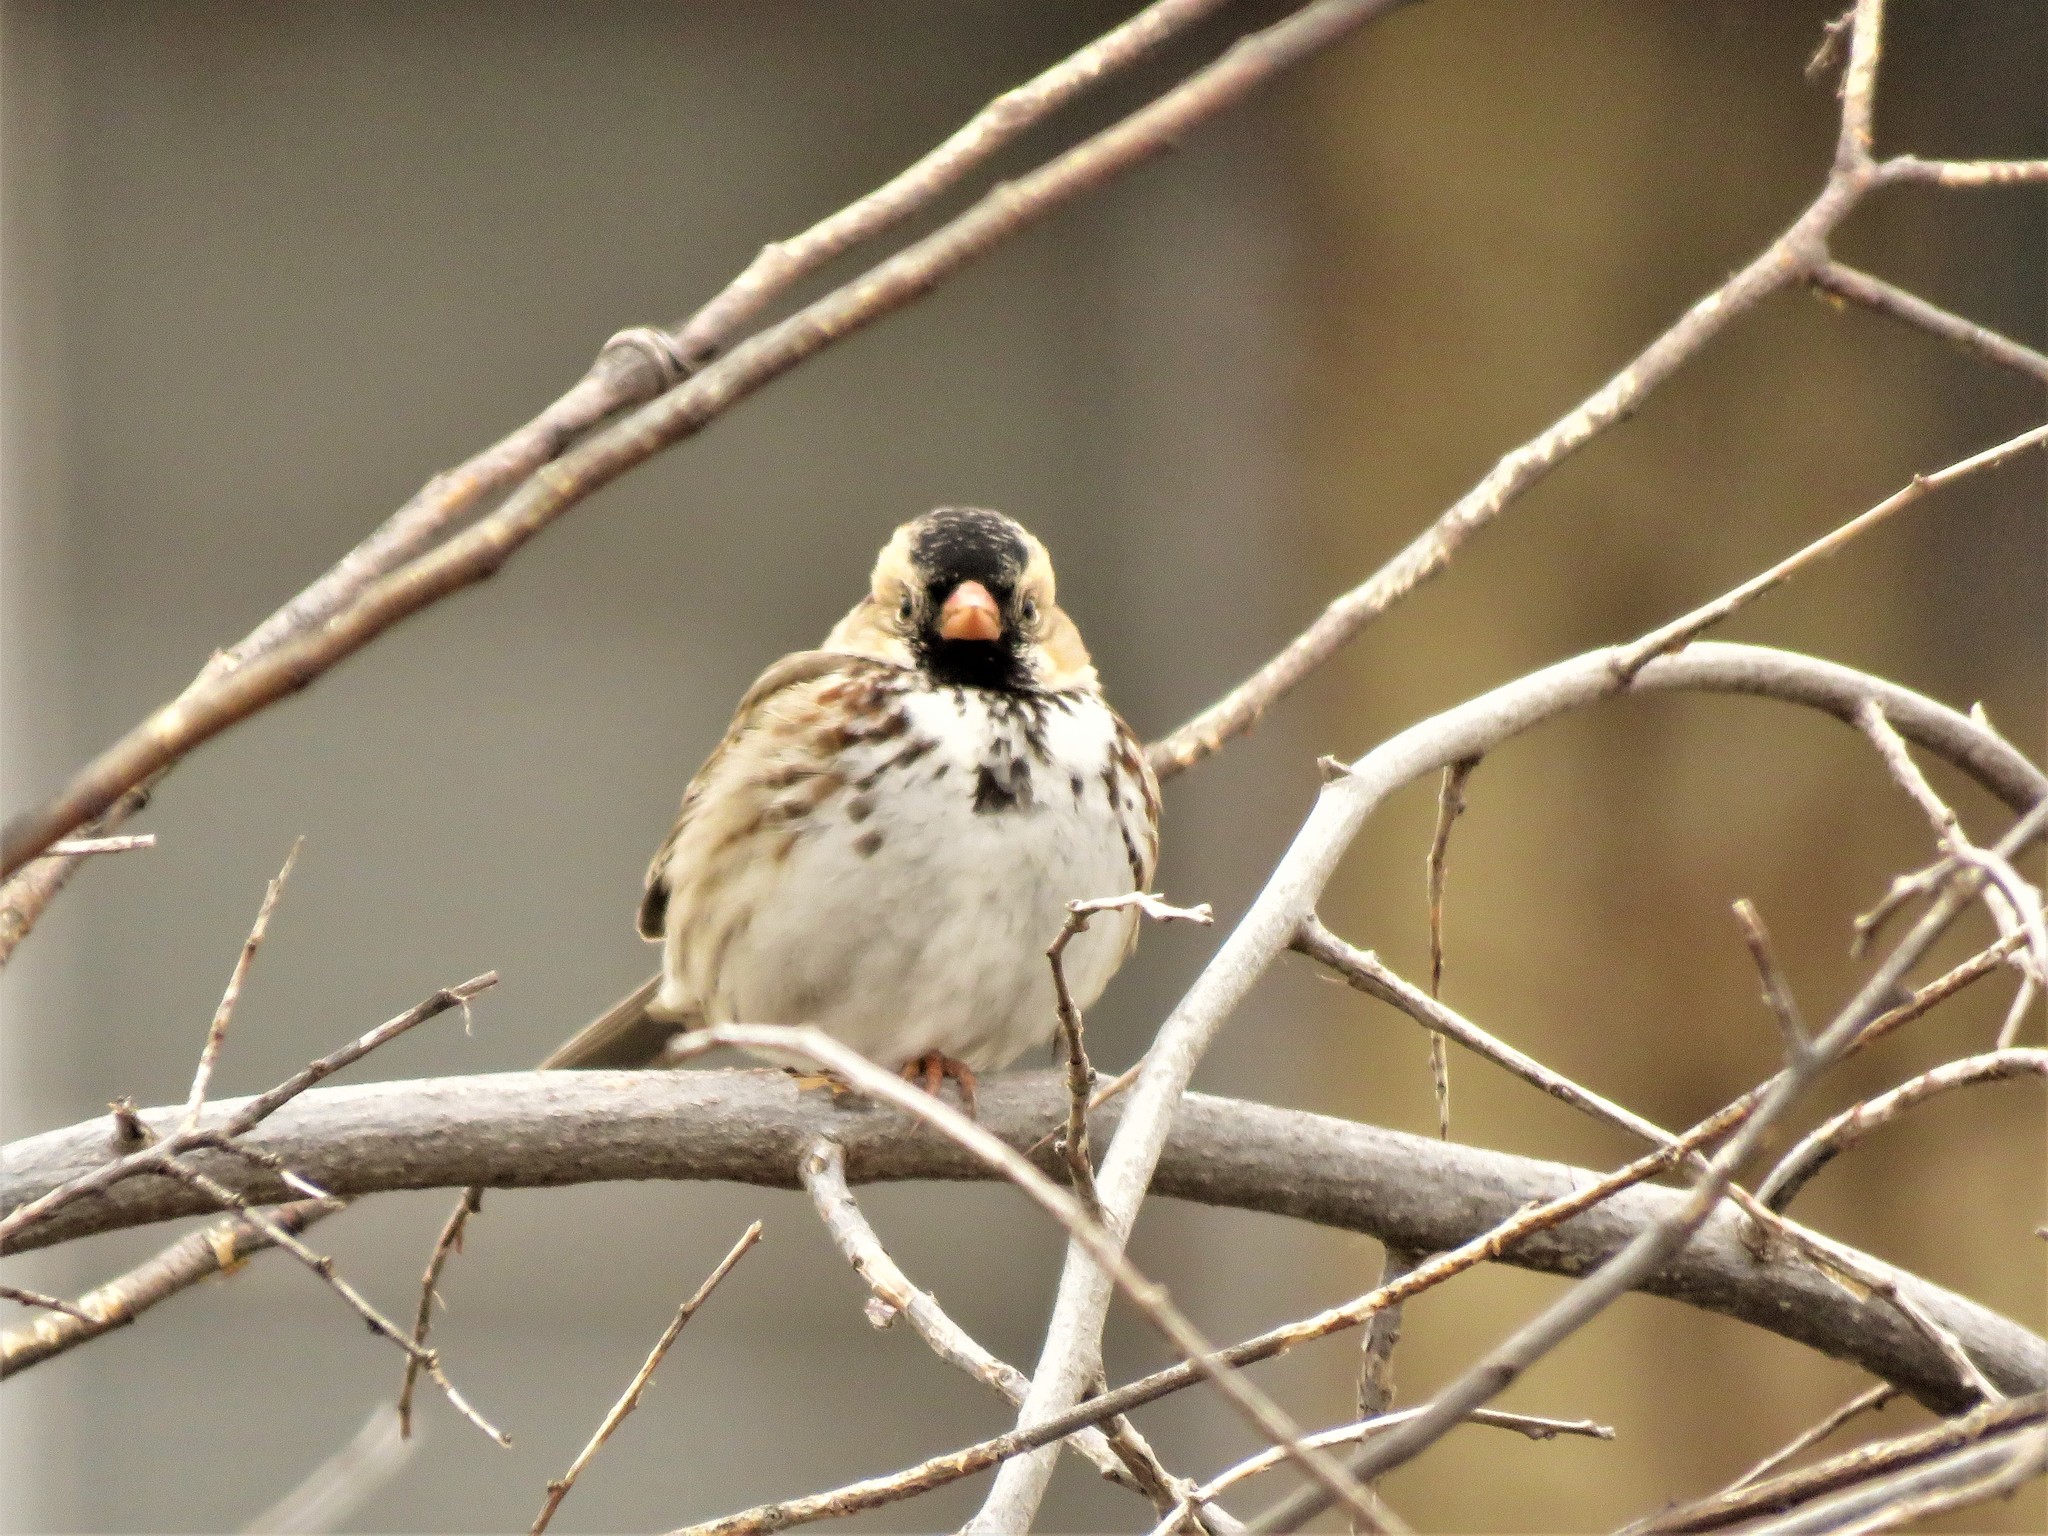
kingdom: Animalia
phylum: Chordata
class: Aves
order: Passeriformes
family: Passerellidae
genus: Zonotrichia
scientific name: Zonotrichia querula
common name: Harris's sparrow
